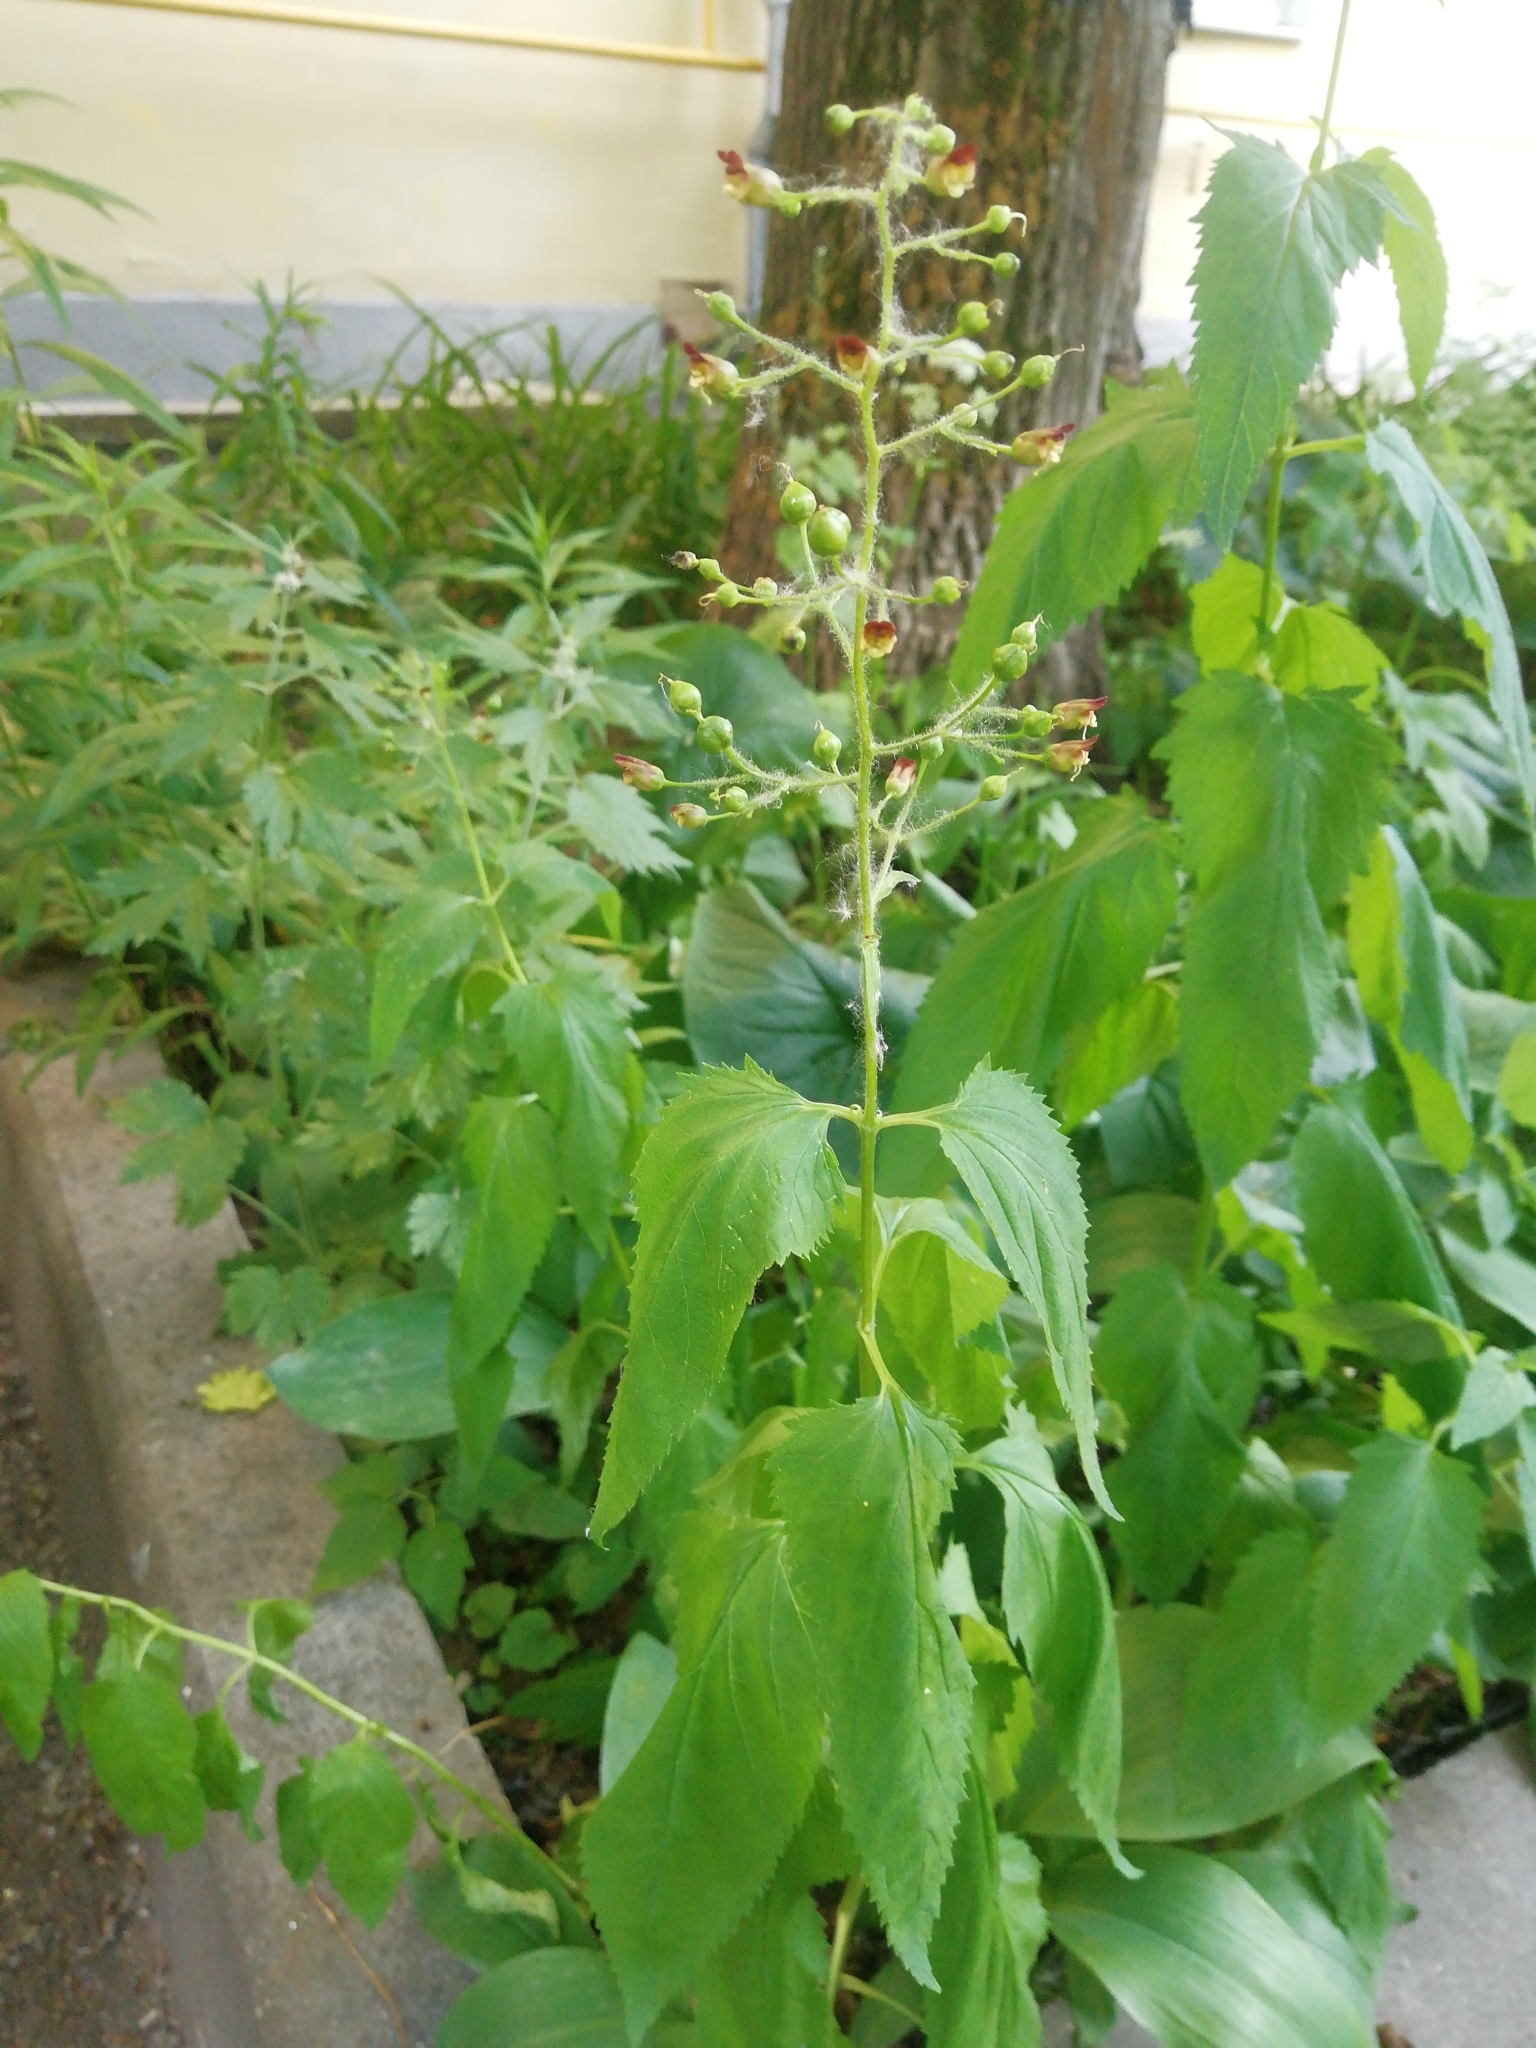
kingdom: Plantae
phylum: Tracheophyta
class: Magnoliopsida
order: Lamiales
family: Scrophulariaceae
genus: Scrophularia
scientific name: Scrophularia nodosa
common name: Common figwort
